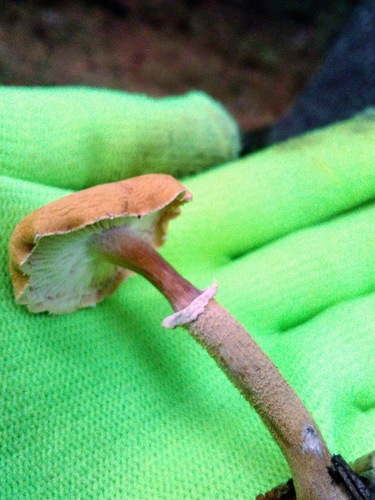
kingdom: Fungi
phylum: Basidiomycota
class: Agaricomycetes
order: Agaricales
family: Agaricaceae
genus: Cystodermella
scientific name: Cystodermella cinnabarina
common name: Cinnabar powdercap
